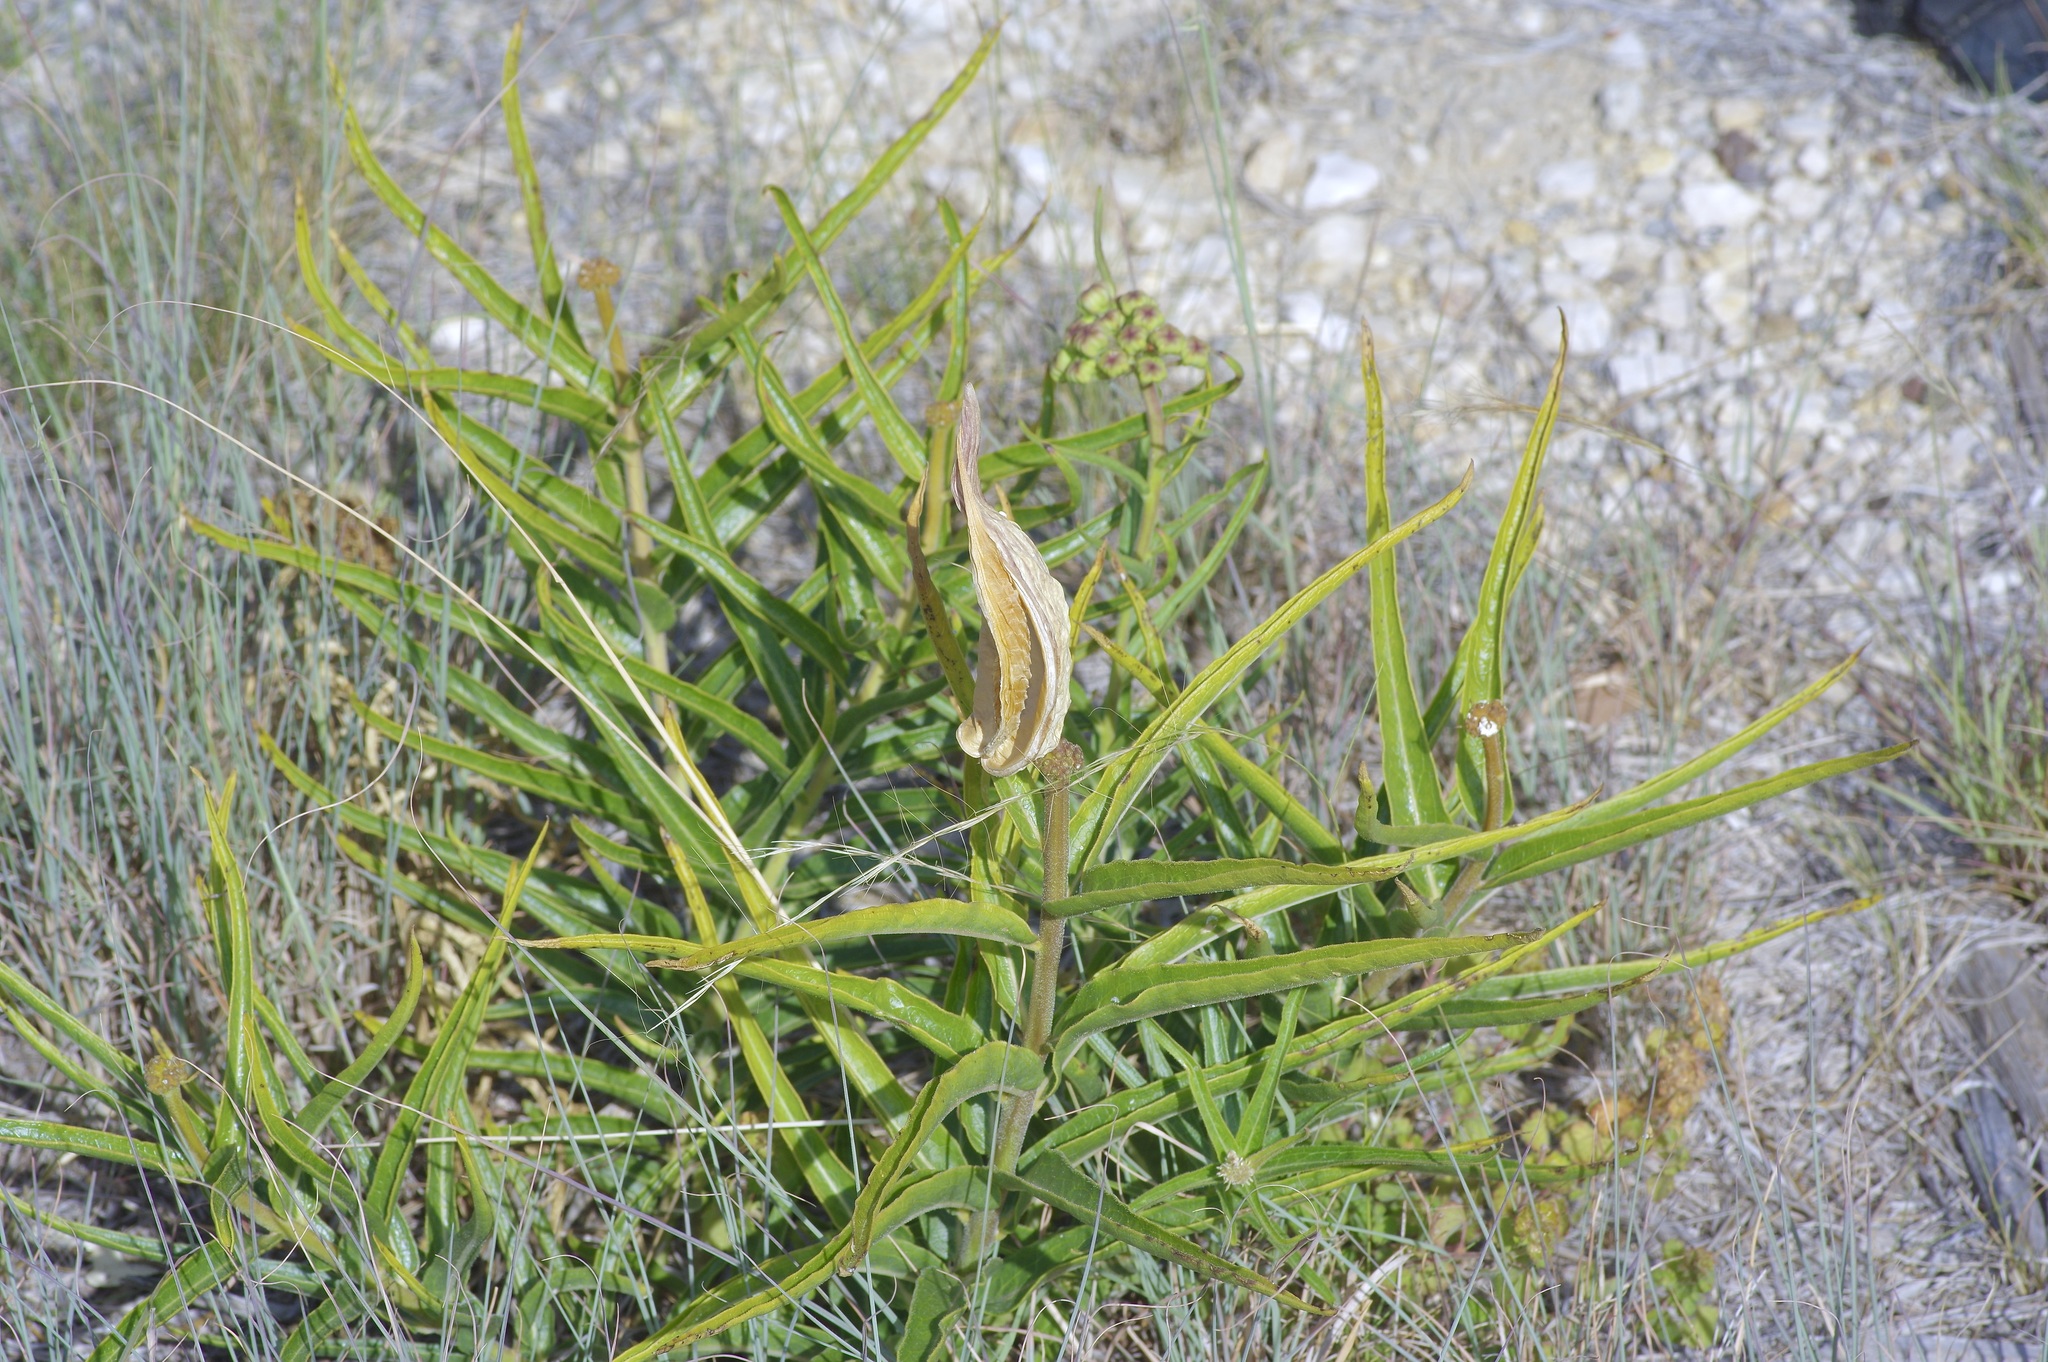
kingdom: Plantae
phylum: Tracheophyta
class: Magnoliopsida
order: Gentianales
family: Apocynaceae
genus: Asclepias
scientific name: Asclepias asperula
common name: Antelope horns
